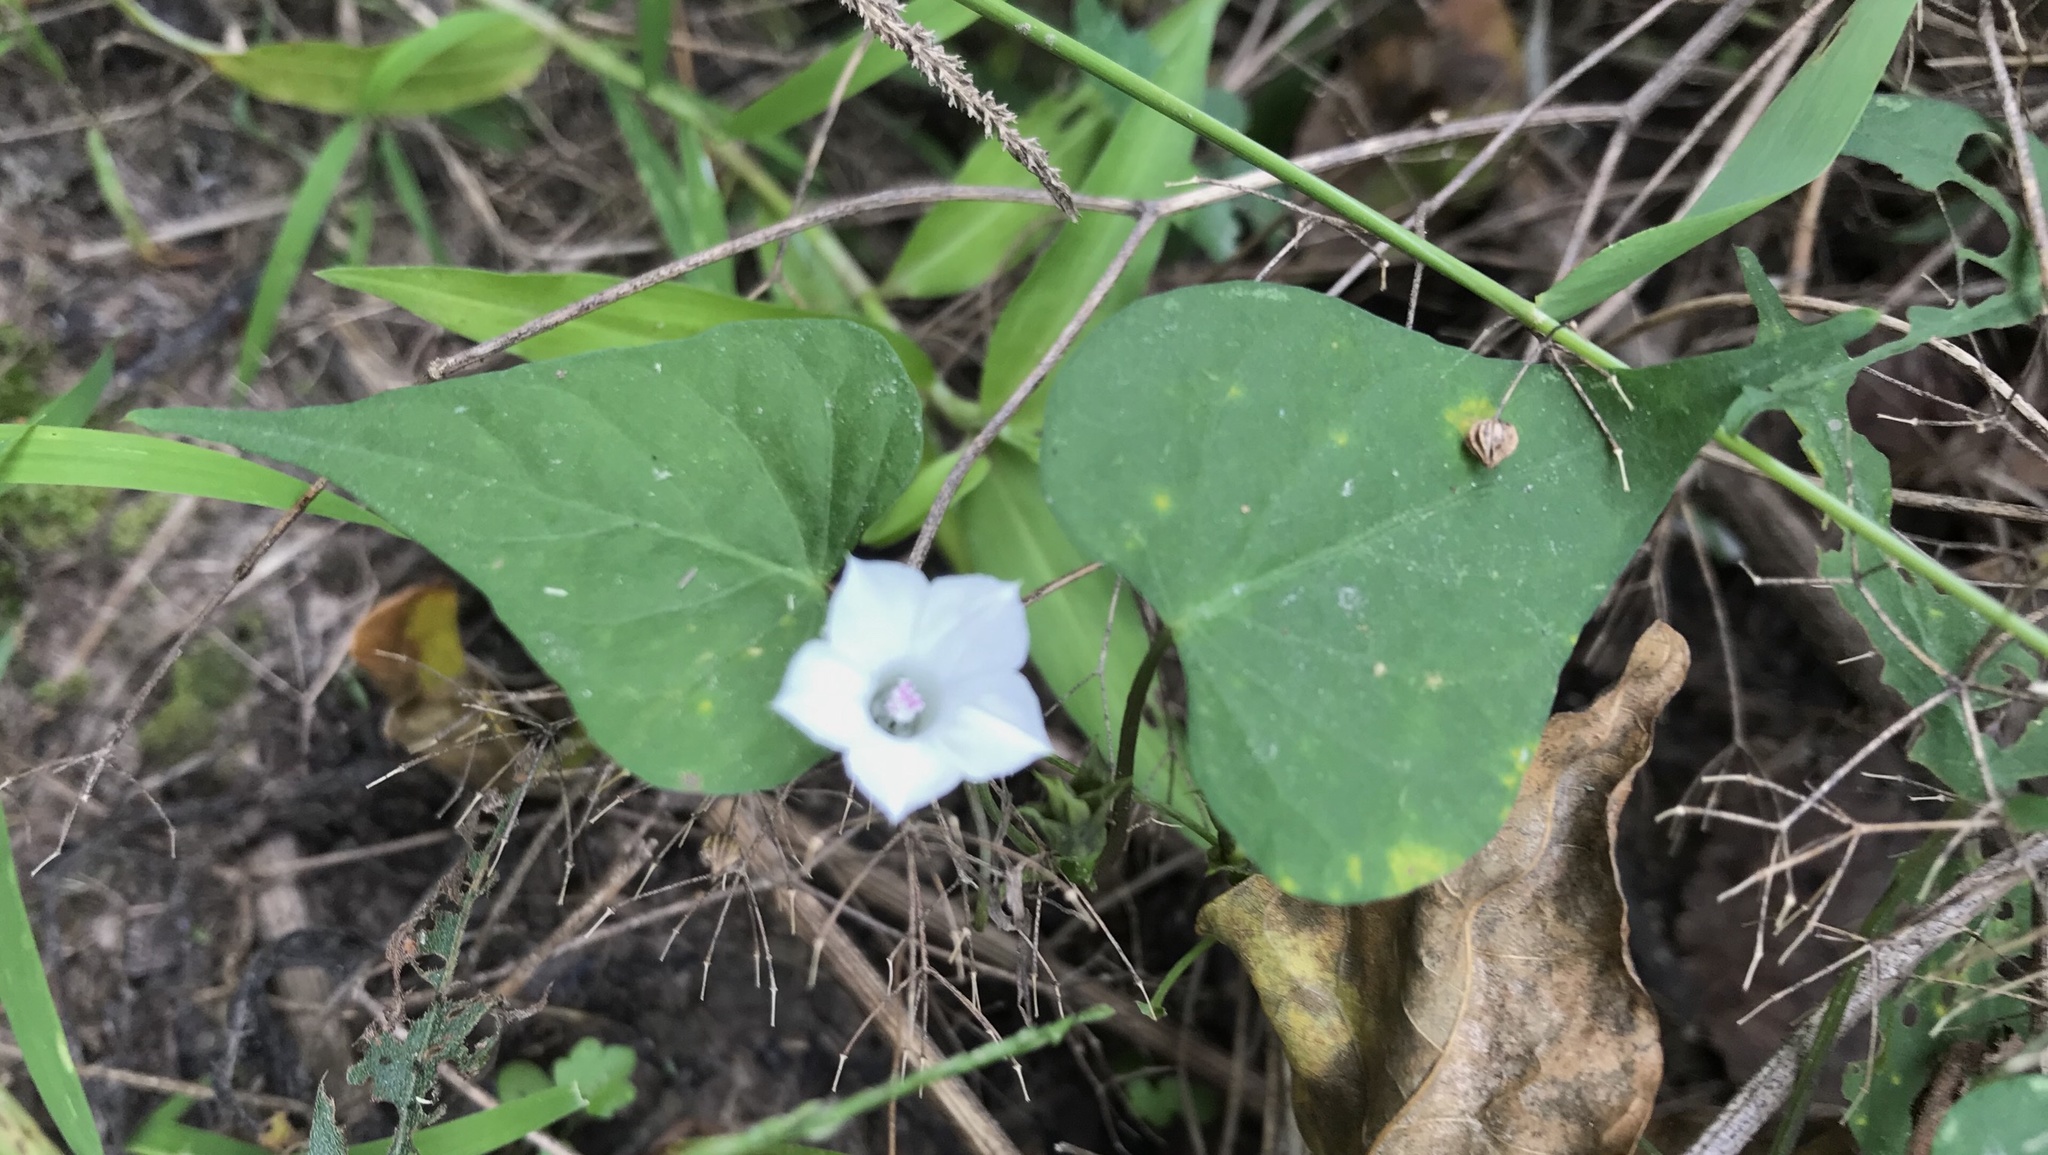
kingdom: Plantae
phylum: Tracheophyta
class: Magnoliopsida
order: Solanales
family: Convolvulaceae
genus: Ipomoea
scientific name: Ipomoea lacunosa
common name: White morning-glory
